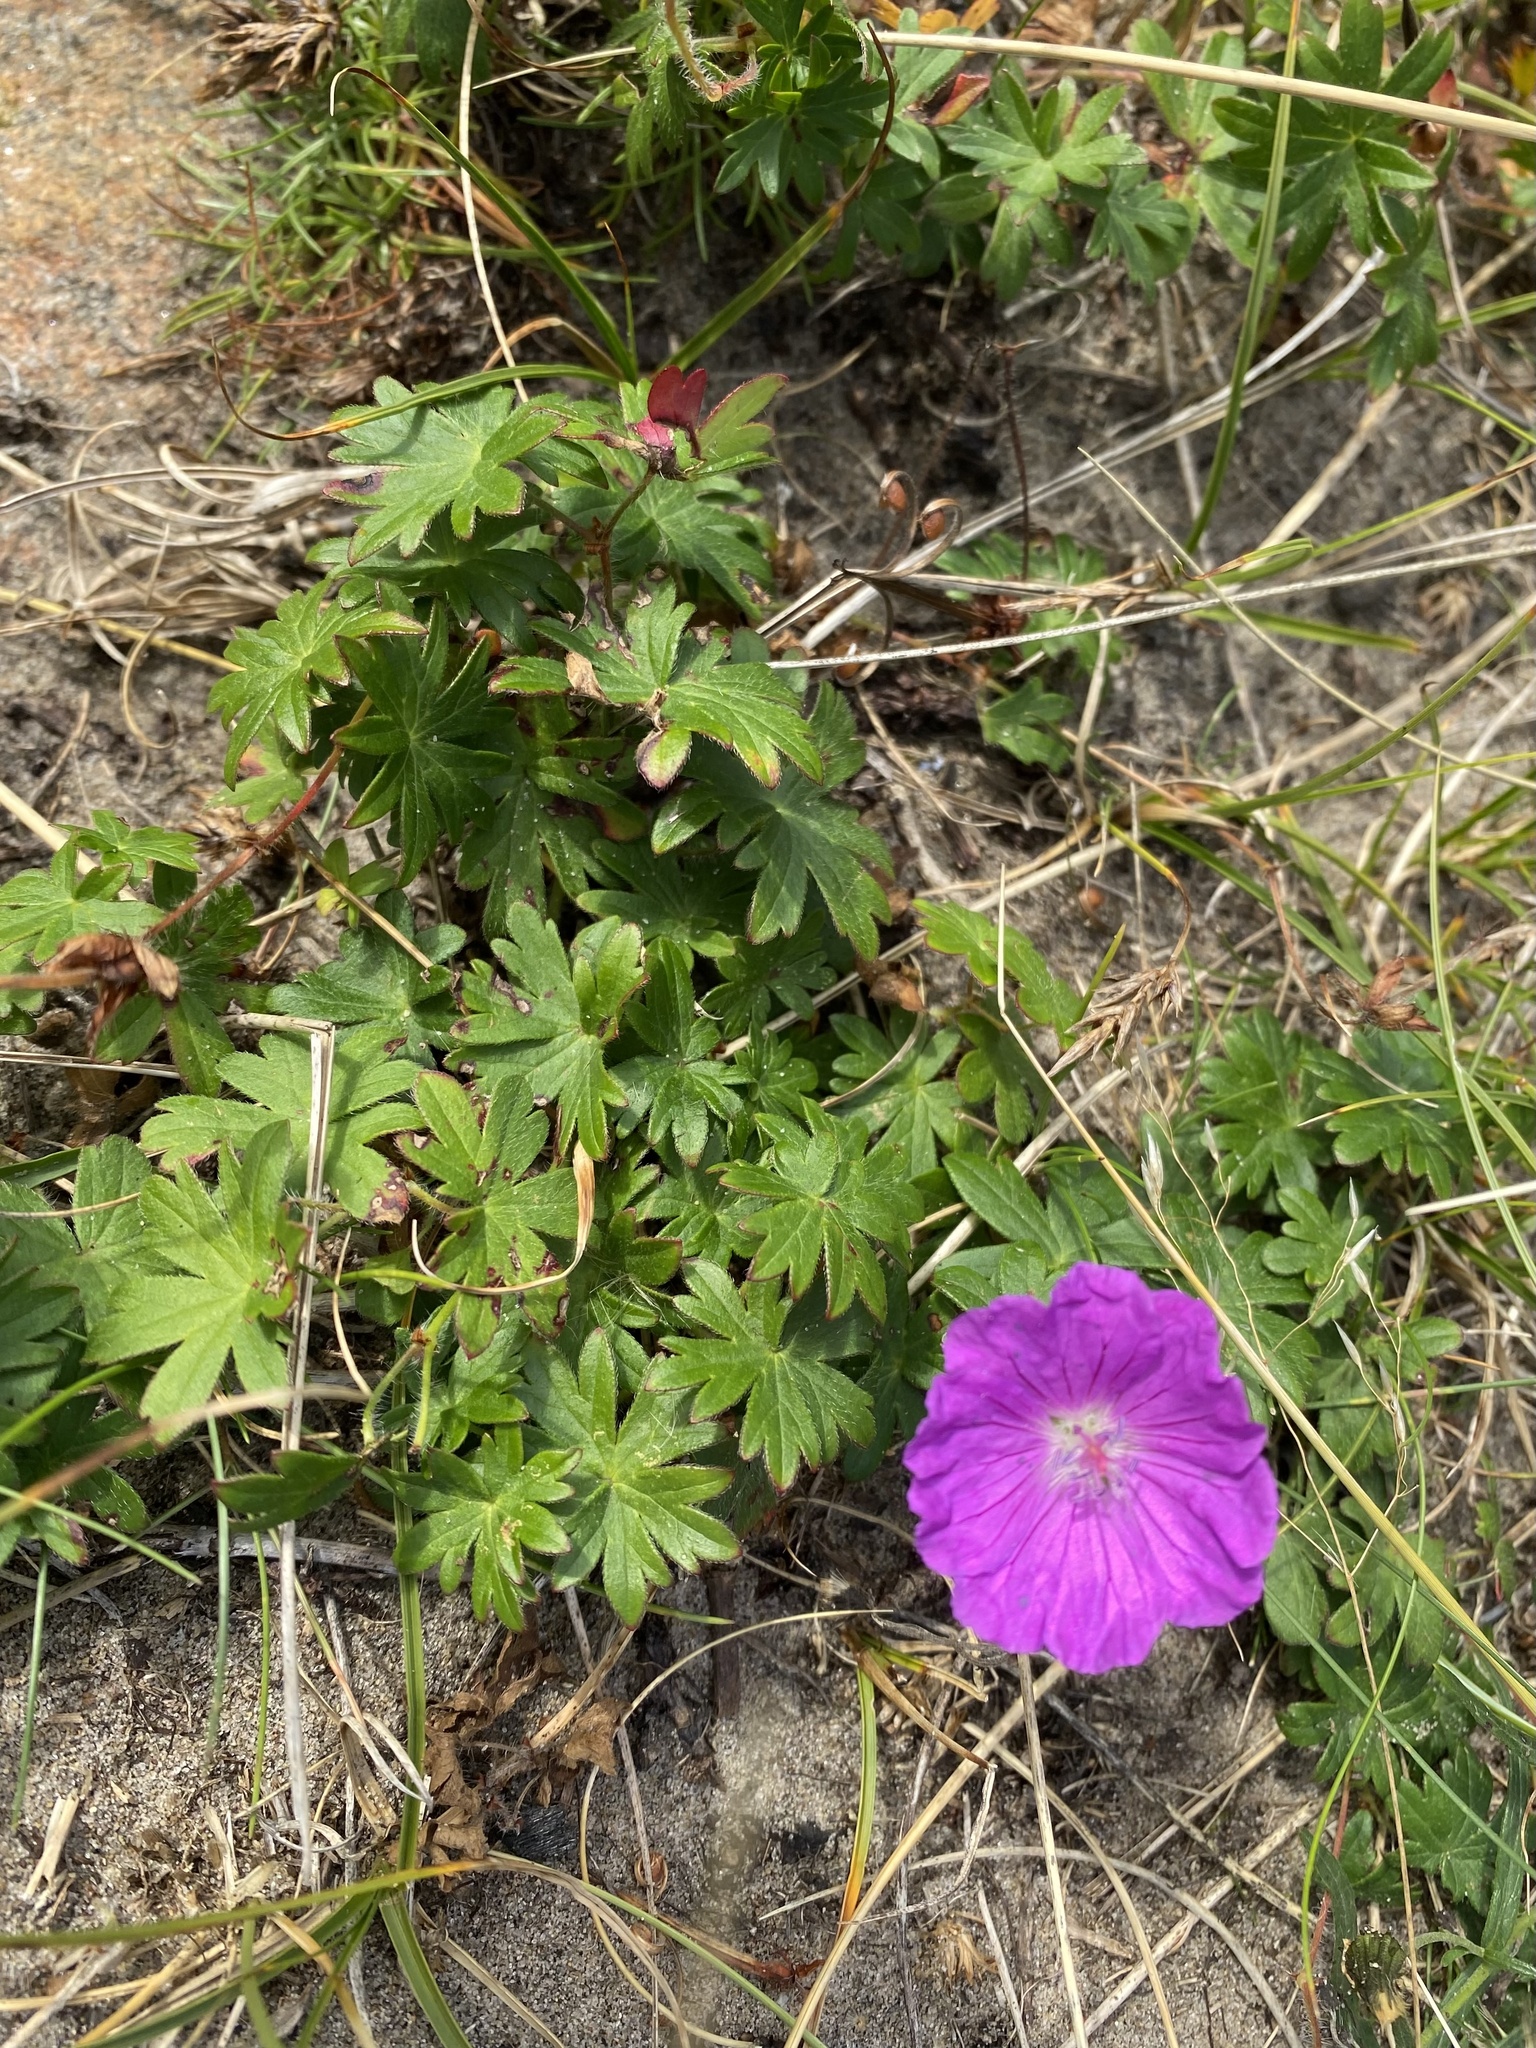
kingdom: Plantae
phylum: Tracheophyta
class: Magnoliopsida
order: Geraniales
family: Geraniaceae
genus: Geranium
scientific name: Geranium sanguineum
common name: Bloody crane's-bill
